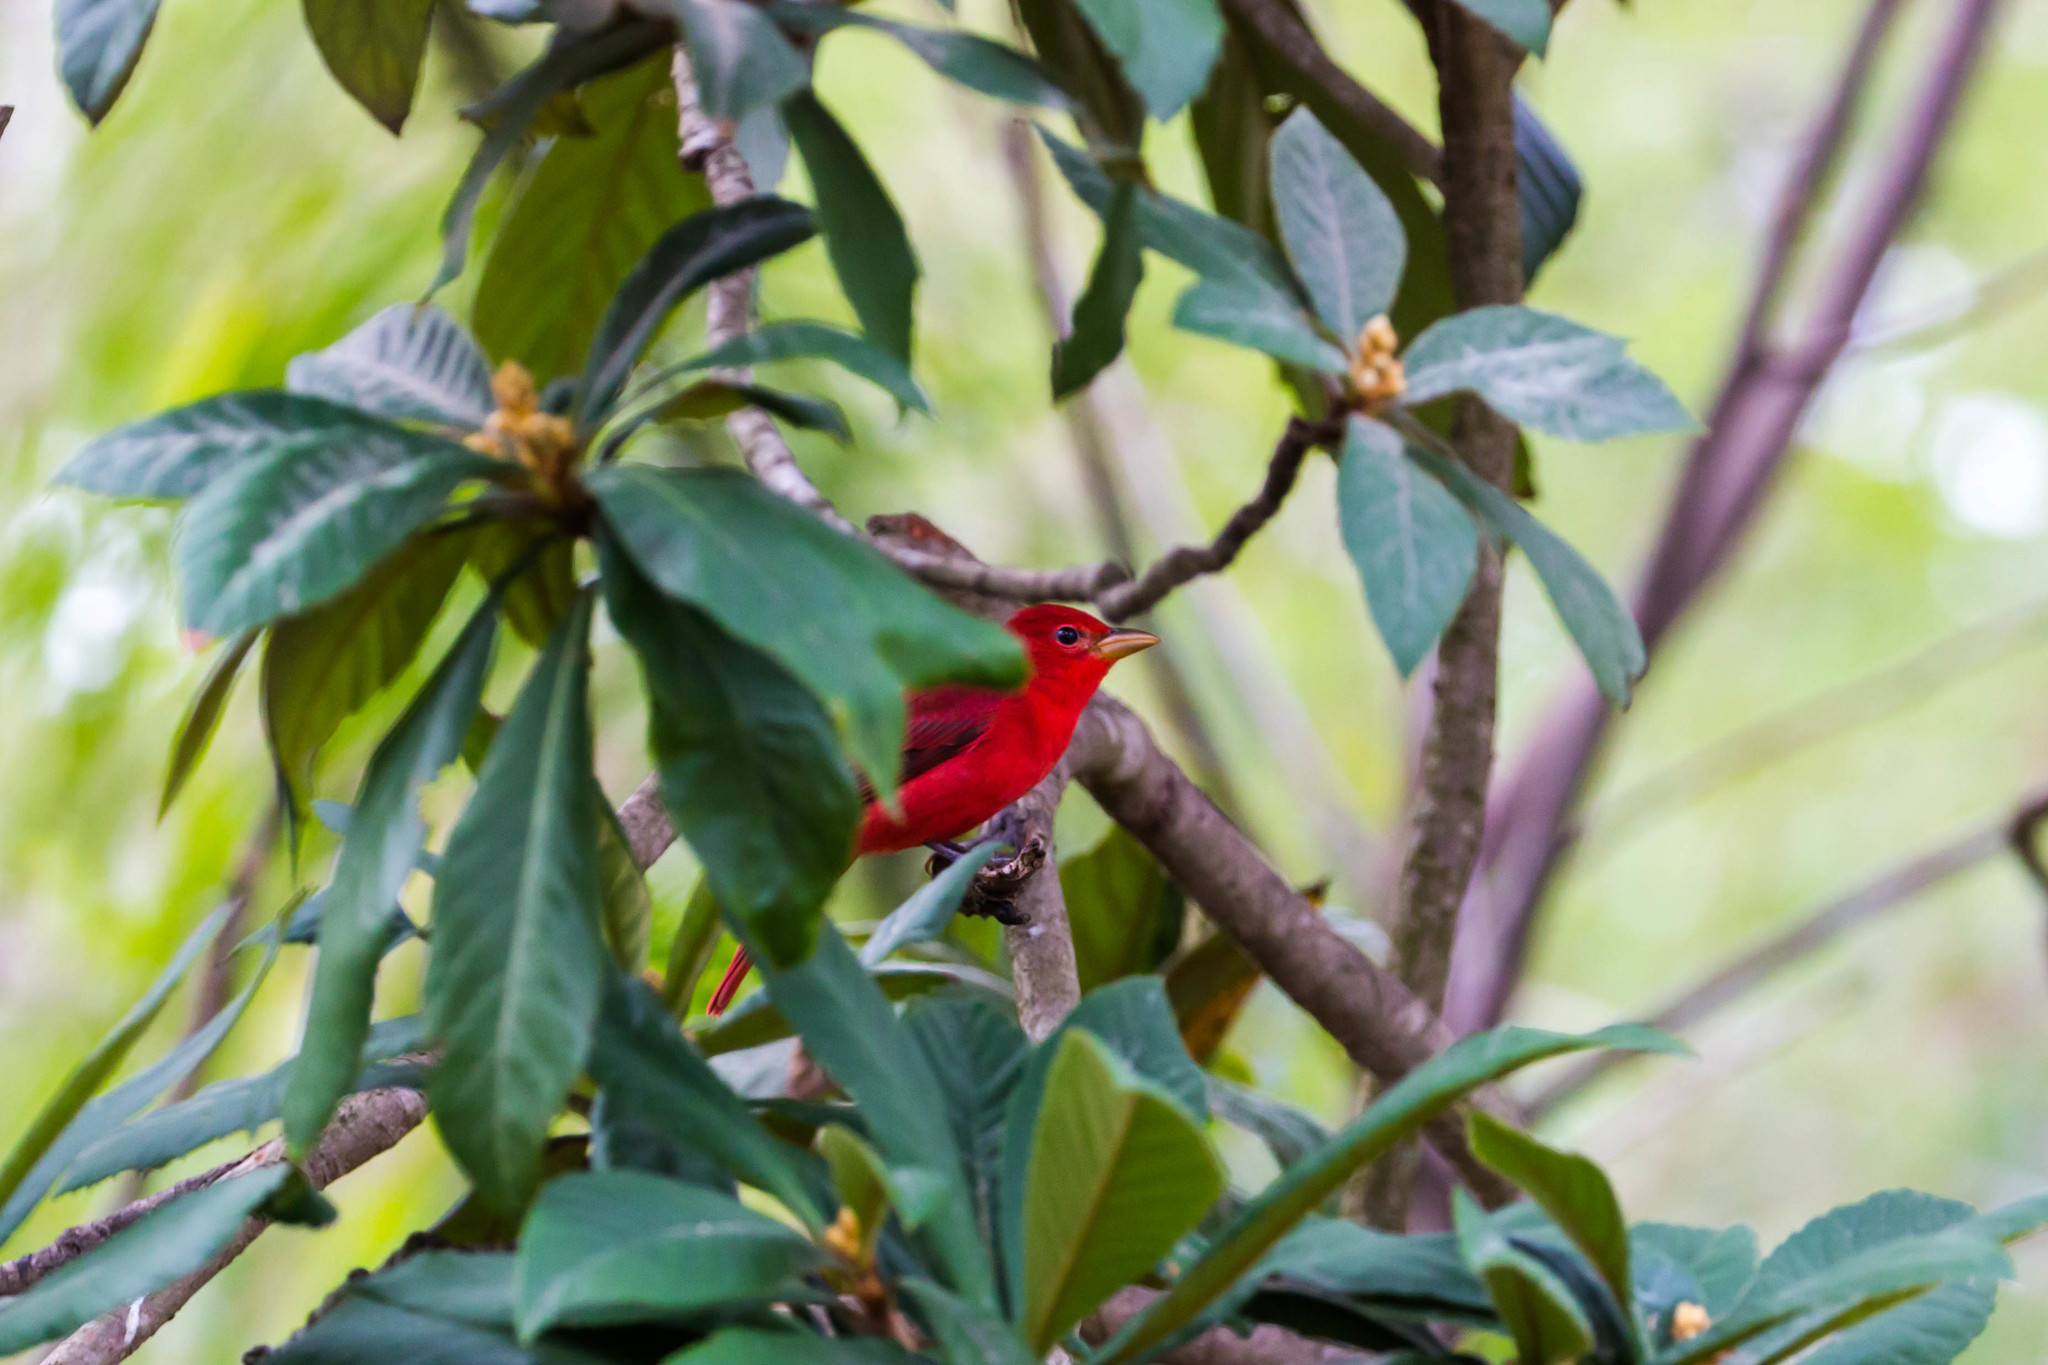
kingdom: Animalia
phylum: Chordata
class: Aves
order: Passeriformes
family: Cardinalidae
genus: Piranga
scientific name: Piranga rubra
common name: Summer tanager
